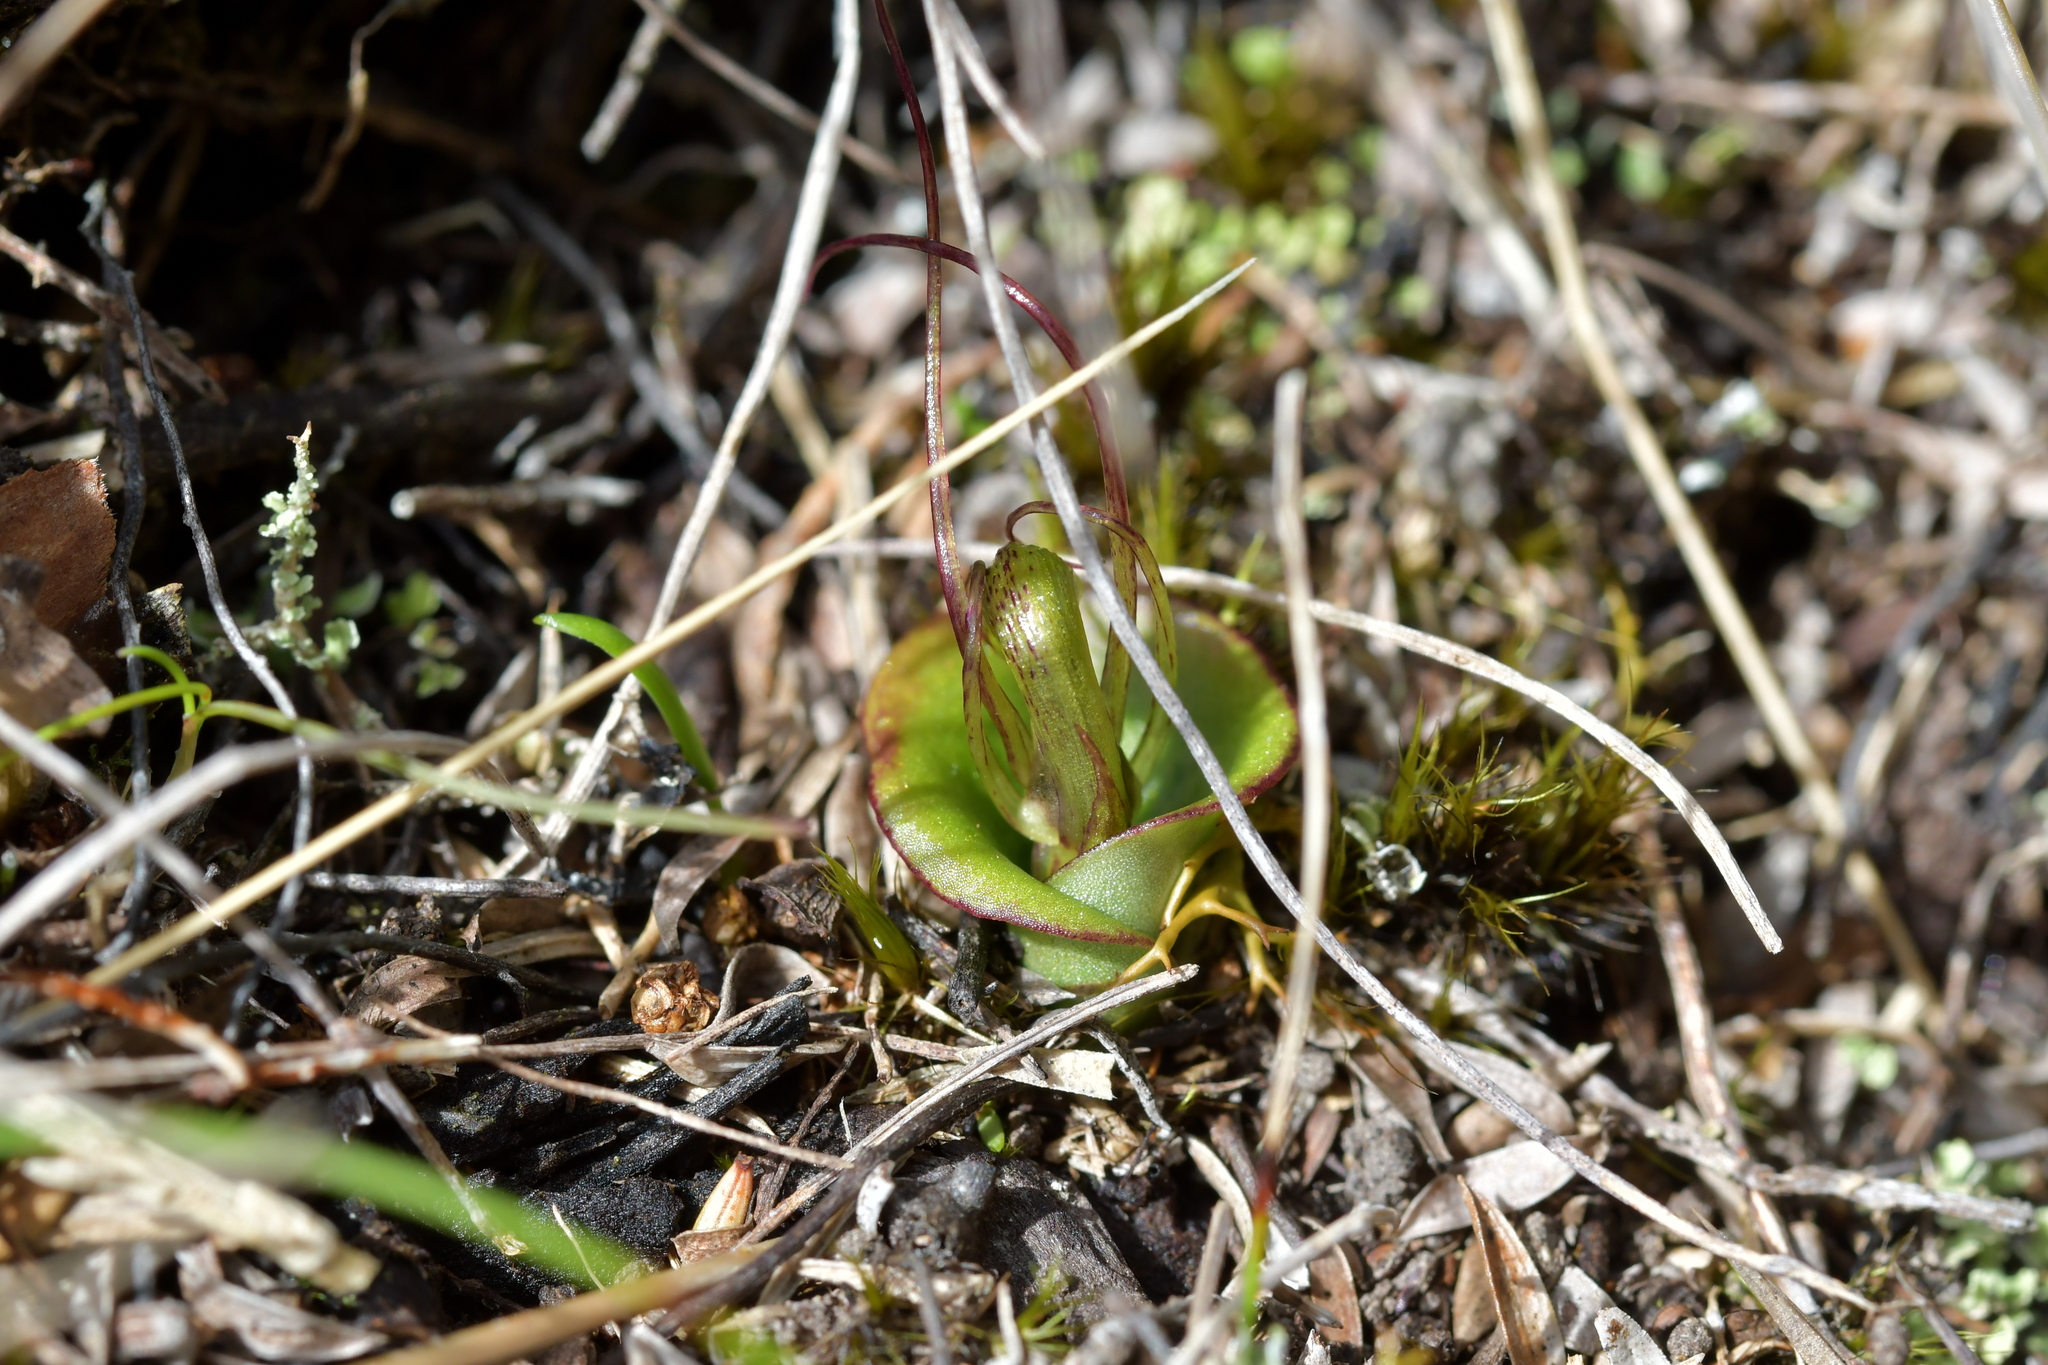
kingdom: Plantae
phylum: Tracheophyta
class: Liliopsida
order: Asparagales
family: Orchidaceae
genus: Corybas
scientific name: Corybas dienemus
